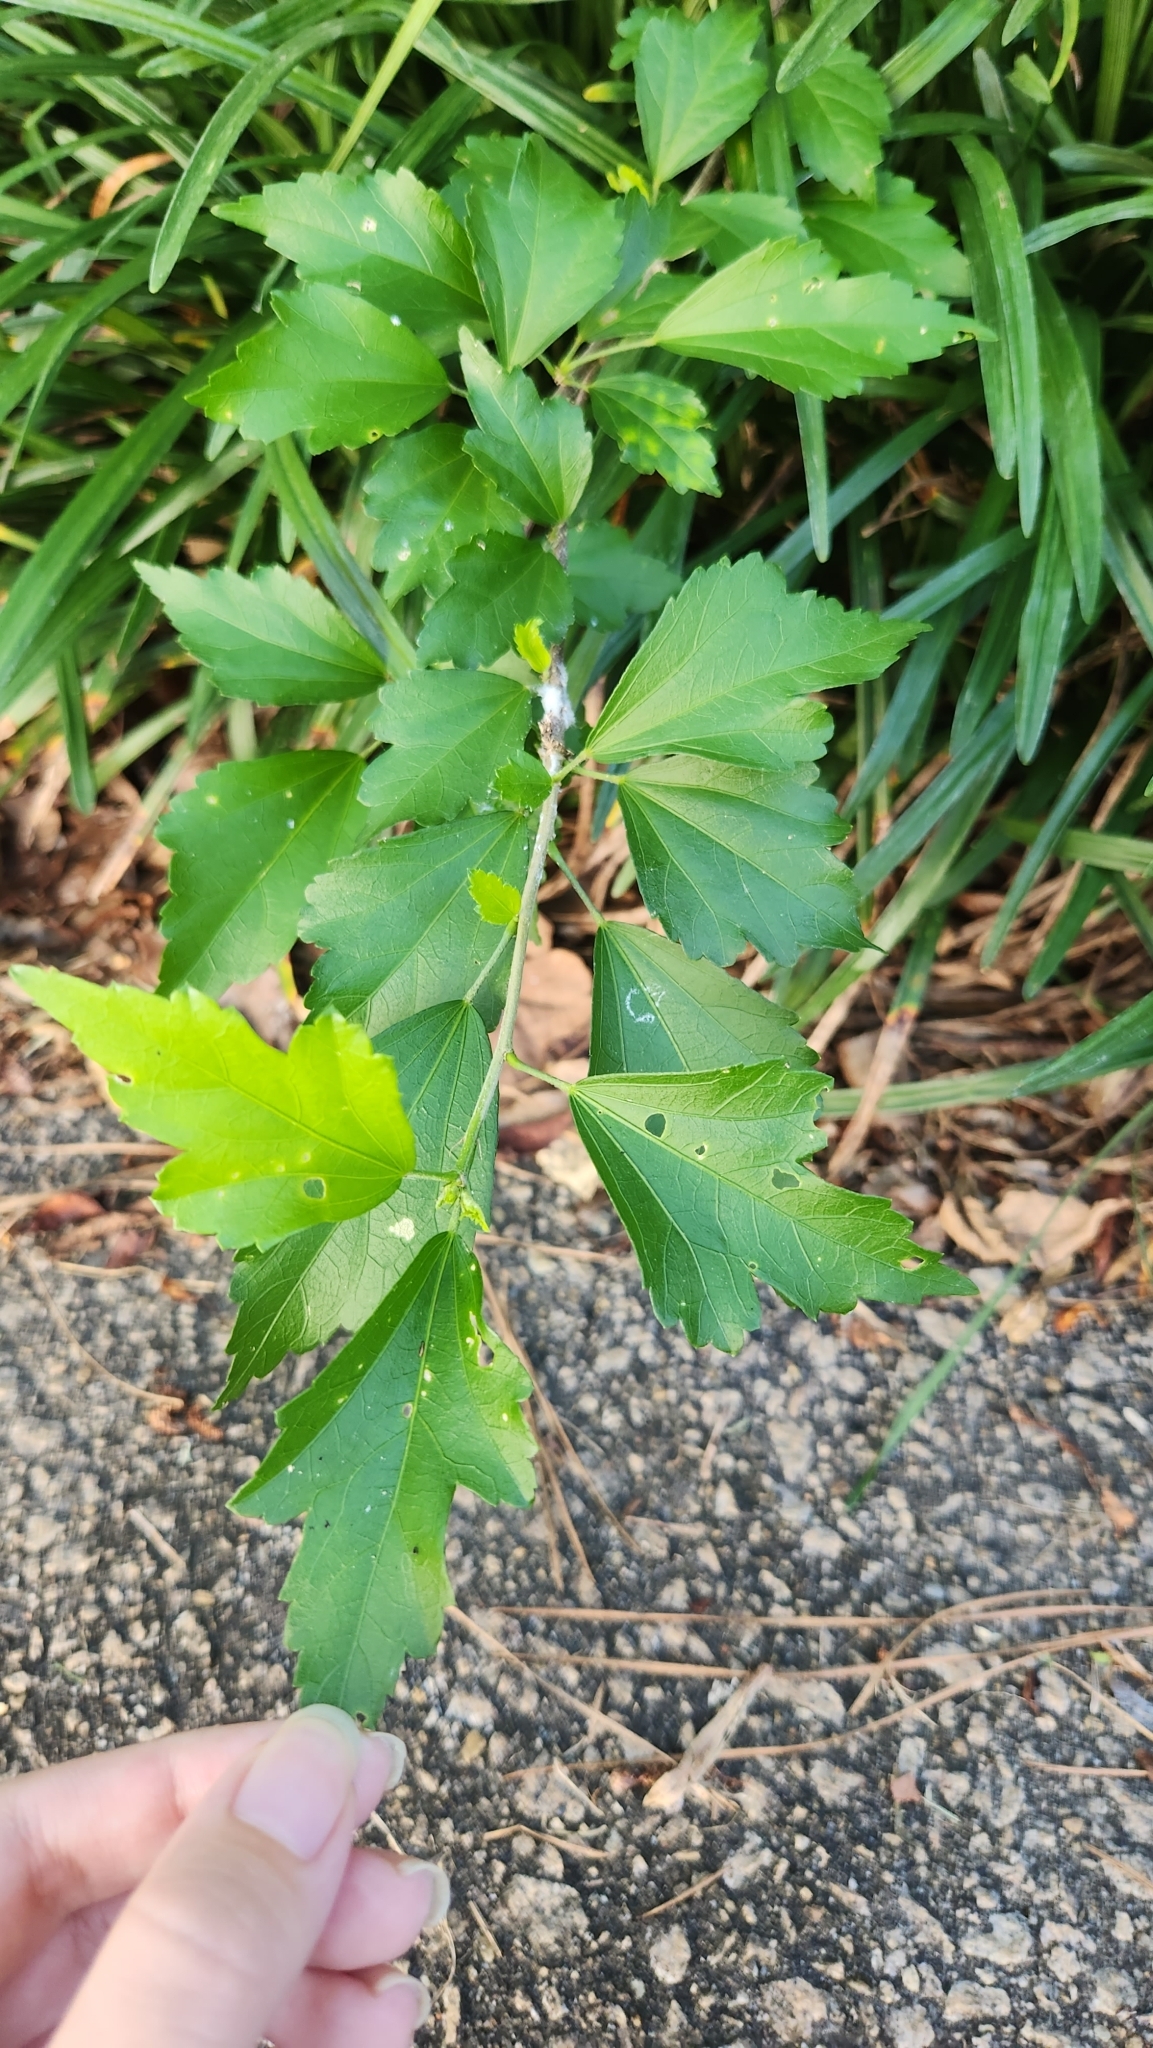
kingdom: Plantae
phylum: Tracheophyta
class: Magnoliopsida
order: Malvales
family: Malvaceae
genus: Hibiscus
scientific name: Hibiscus syriacus
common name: Syrian ketmia
